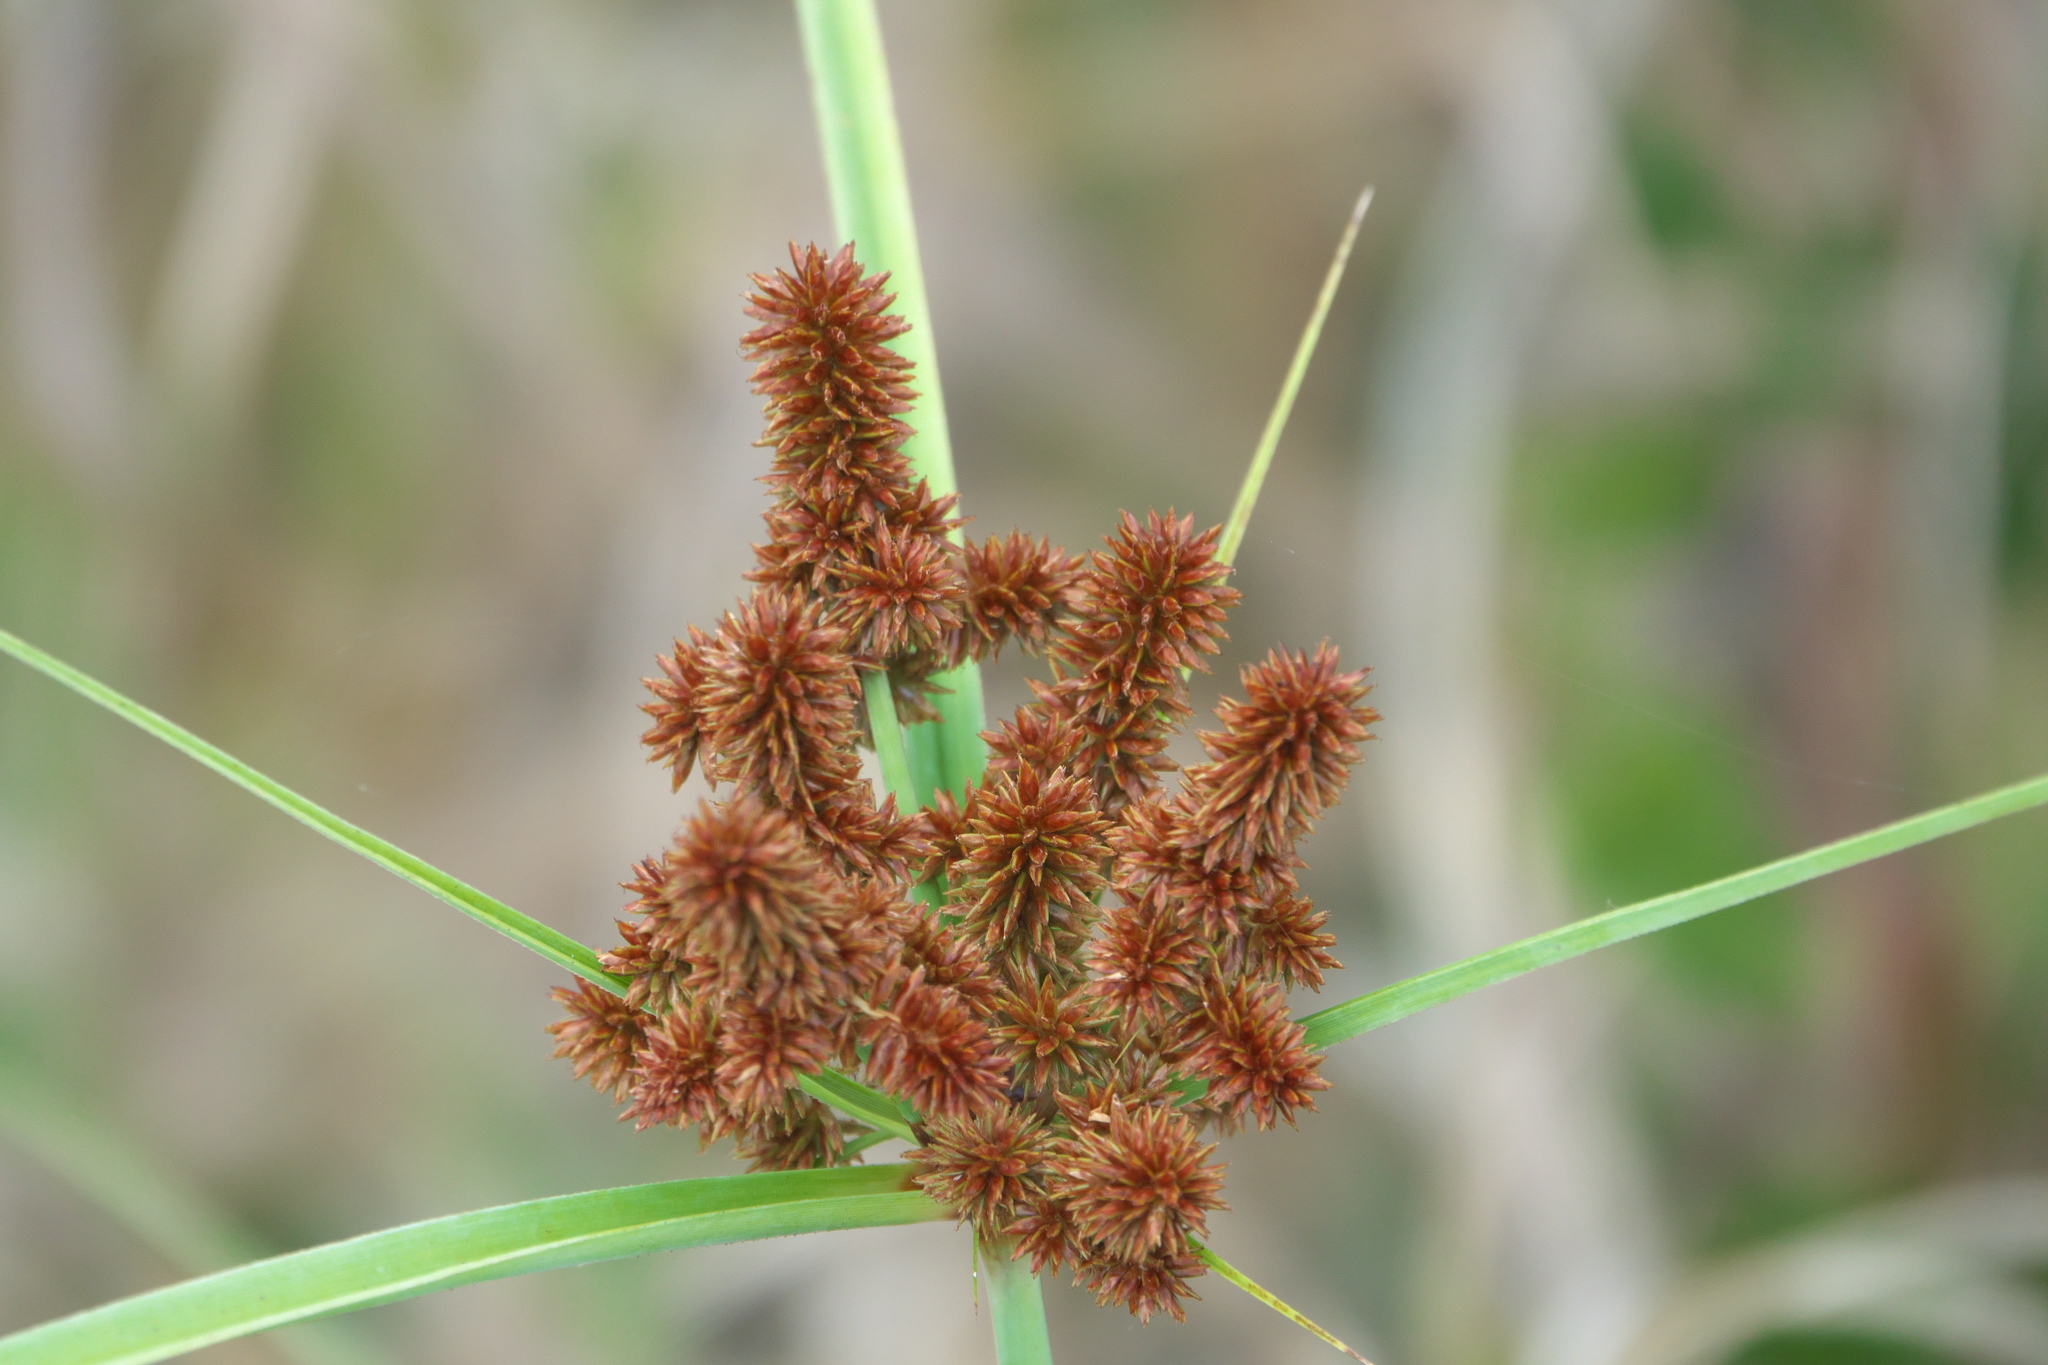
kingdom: Plantae
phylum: Tracheophyta
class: Liliopsida
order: Poales
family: Cyperaceae
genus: Cyperus
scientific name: Cyperus ligularis
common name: Swamp flat sedge
